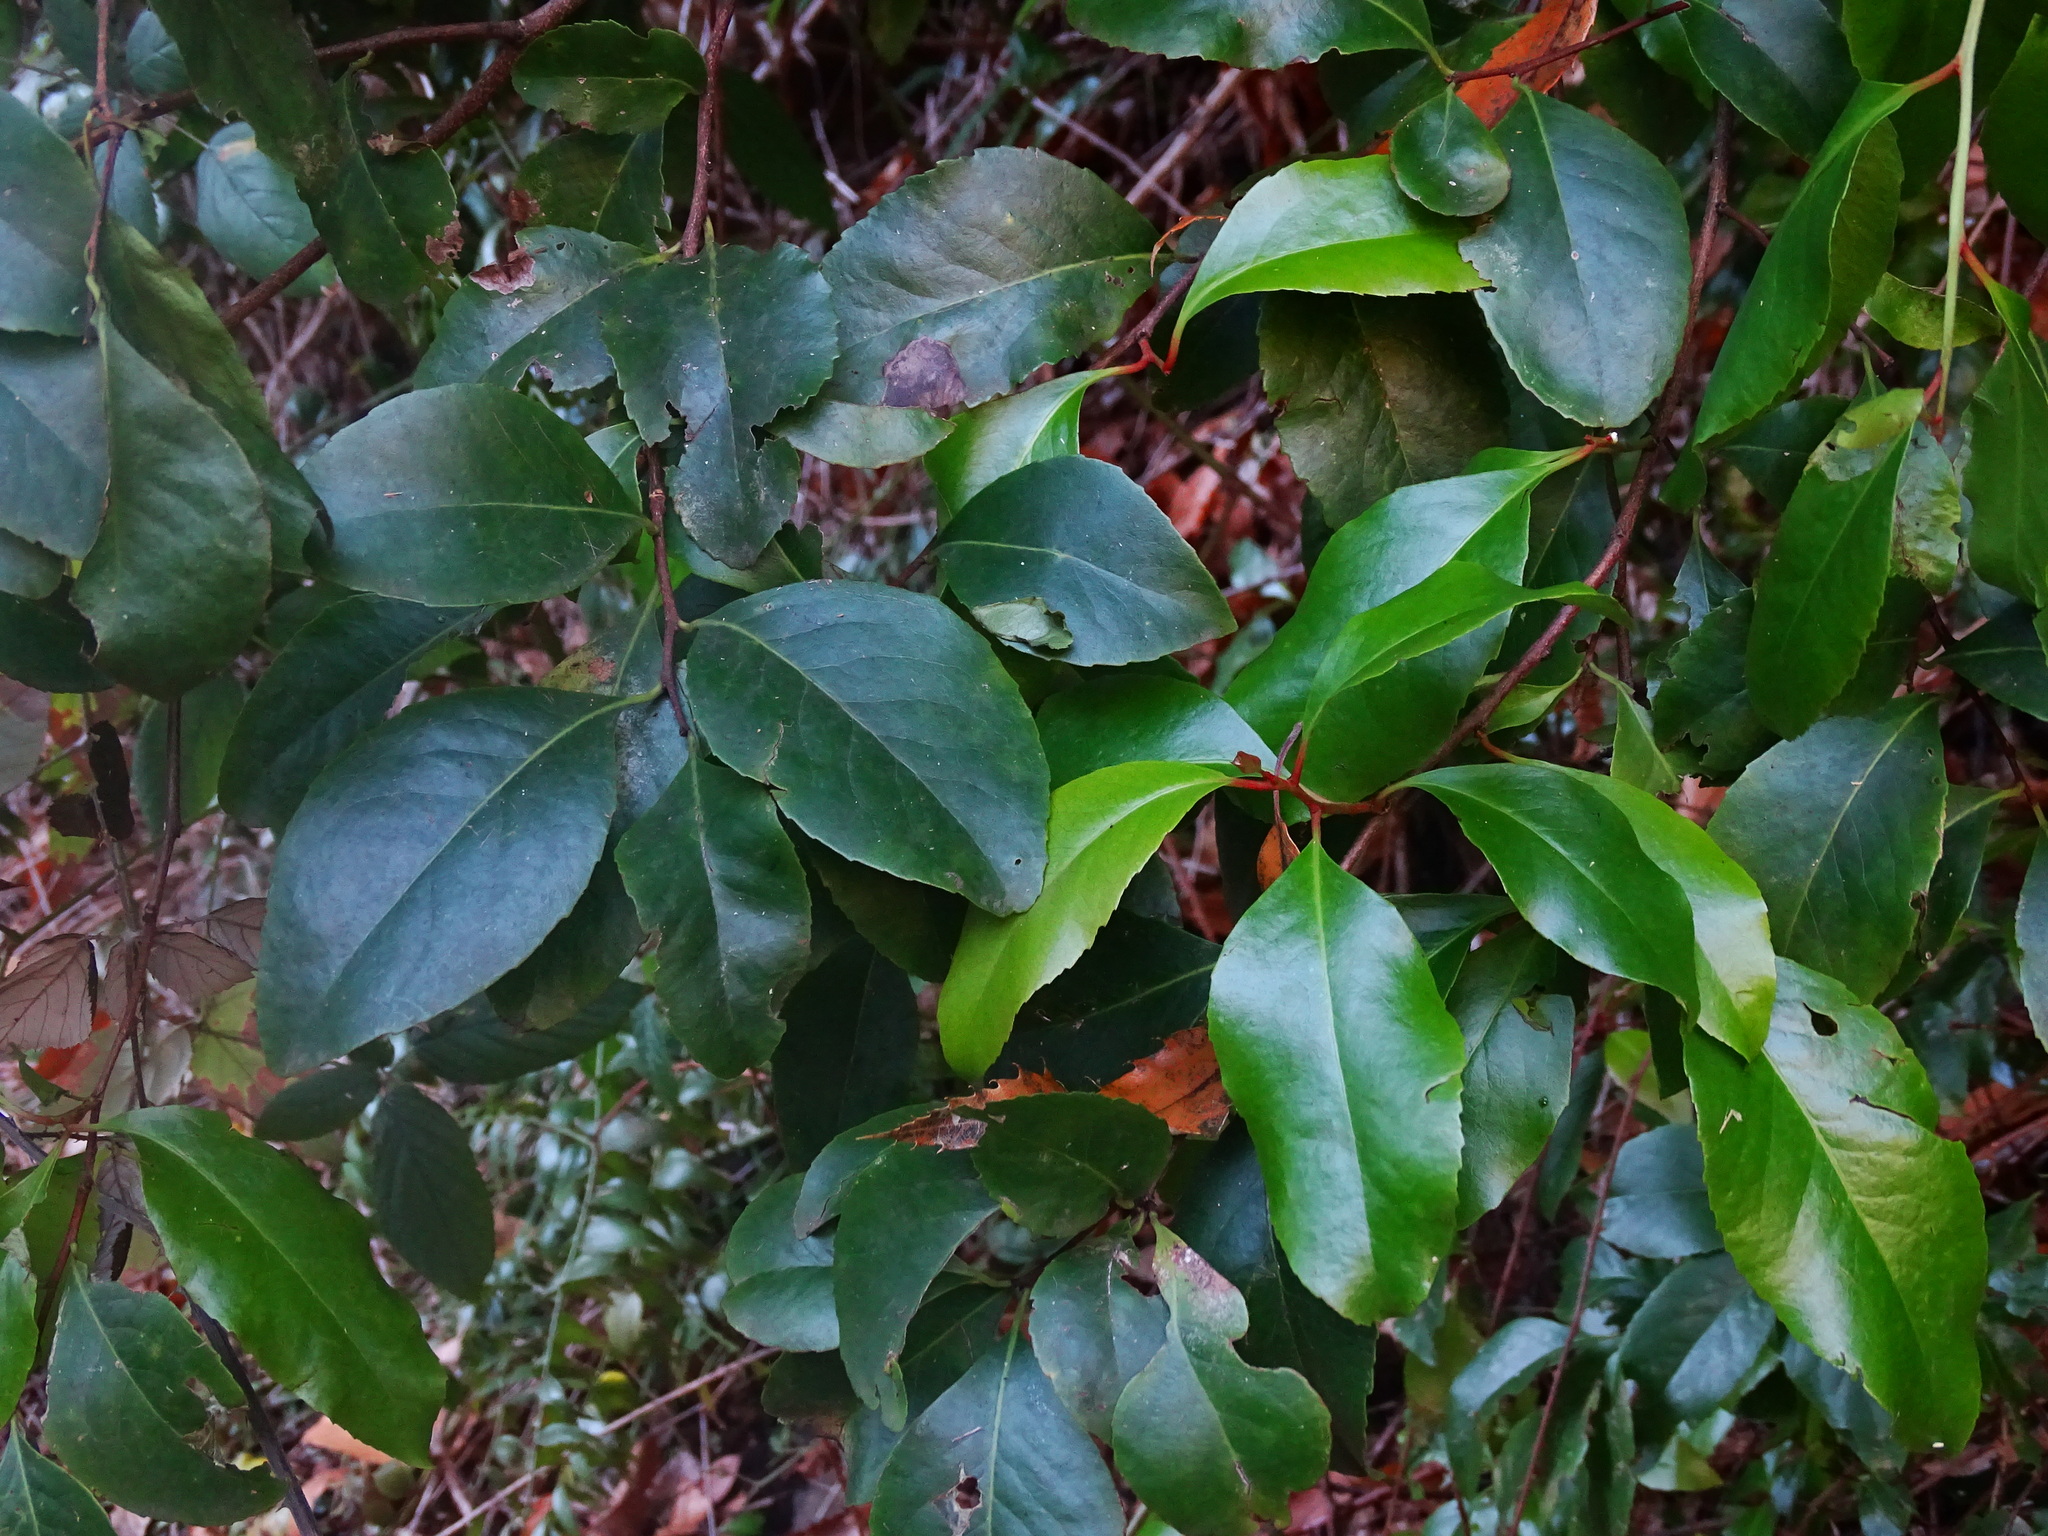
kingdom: Plantae
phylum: Tracheophyta
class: Magnoliopsida
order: Celastrales
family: Celastraceae
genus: Gymnosporia
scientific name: Gymnosporia cassinoides
